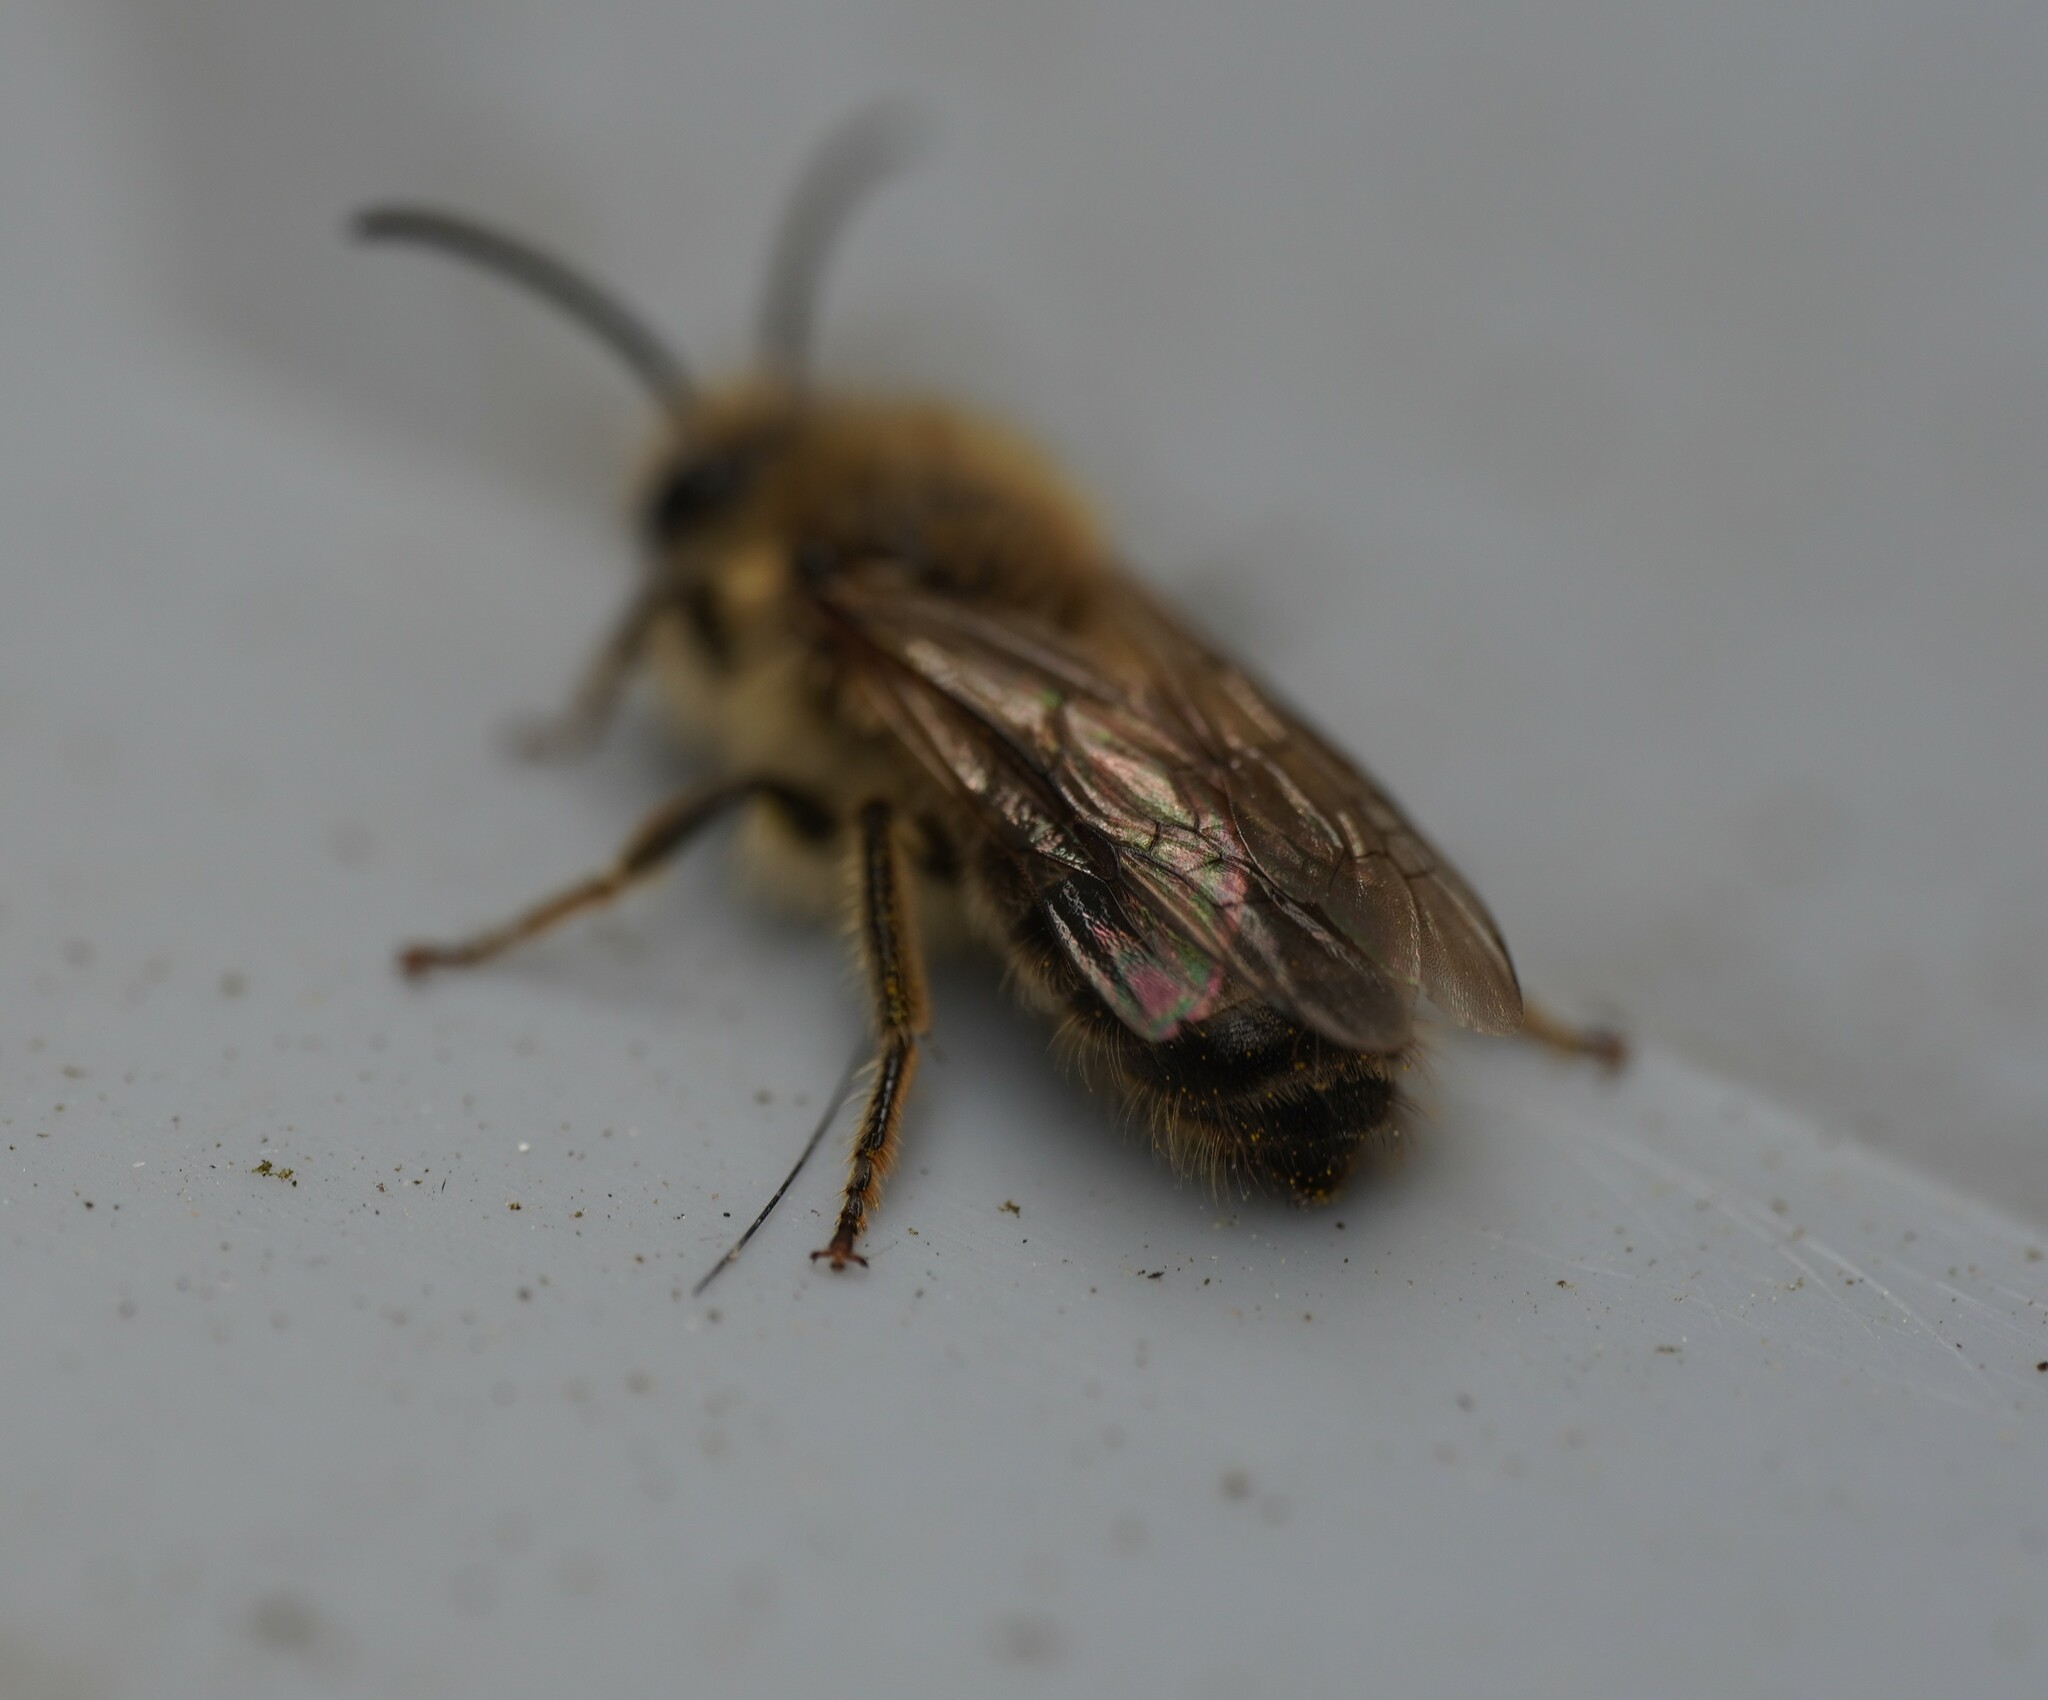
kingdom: Animalia
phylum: Arthropoda
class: Insecta
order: Hymenoptera
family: Colletidae
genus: Colletes
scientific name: Colletes cunicularius
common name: Early colletes
